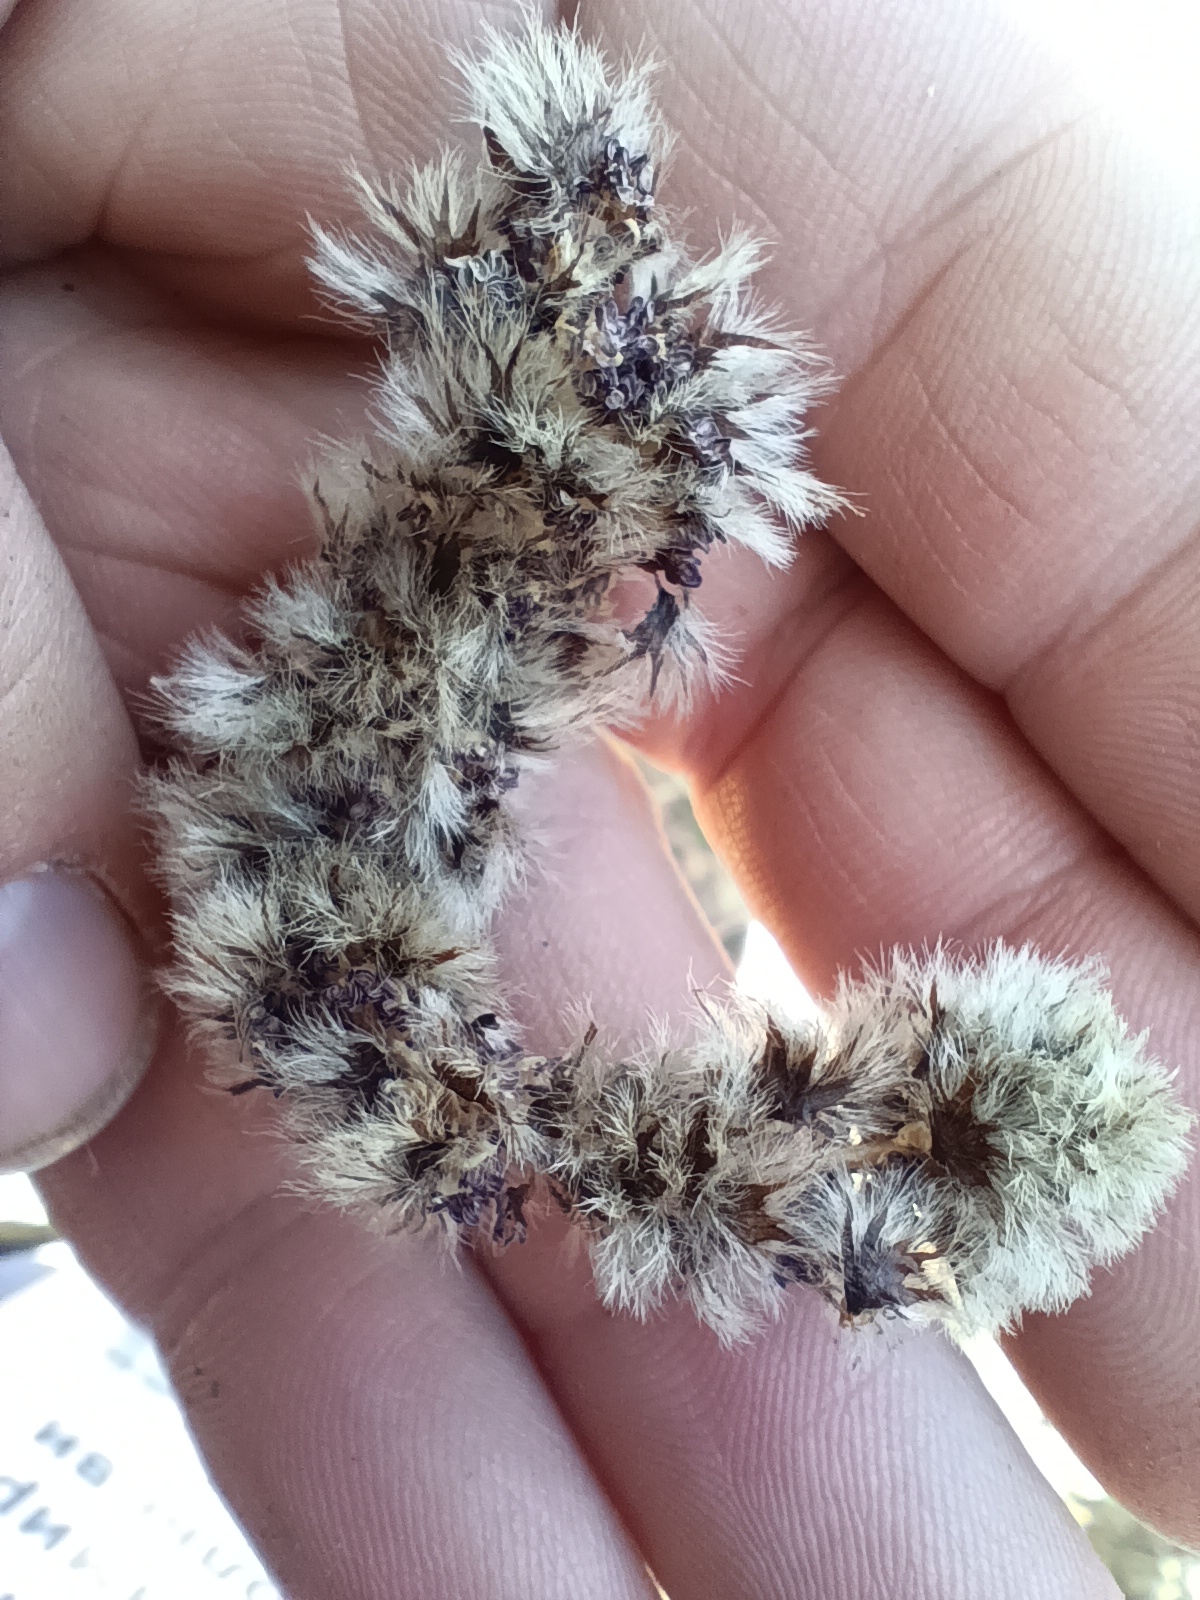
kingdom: Plantae
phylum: Tracheophyta
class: Magnoliopsida
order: Malpighiales
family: Salicaceae
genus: Populus
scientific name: Populus tremula
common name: European aspen
